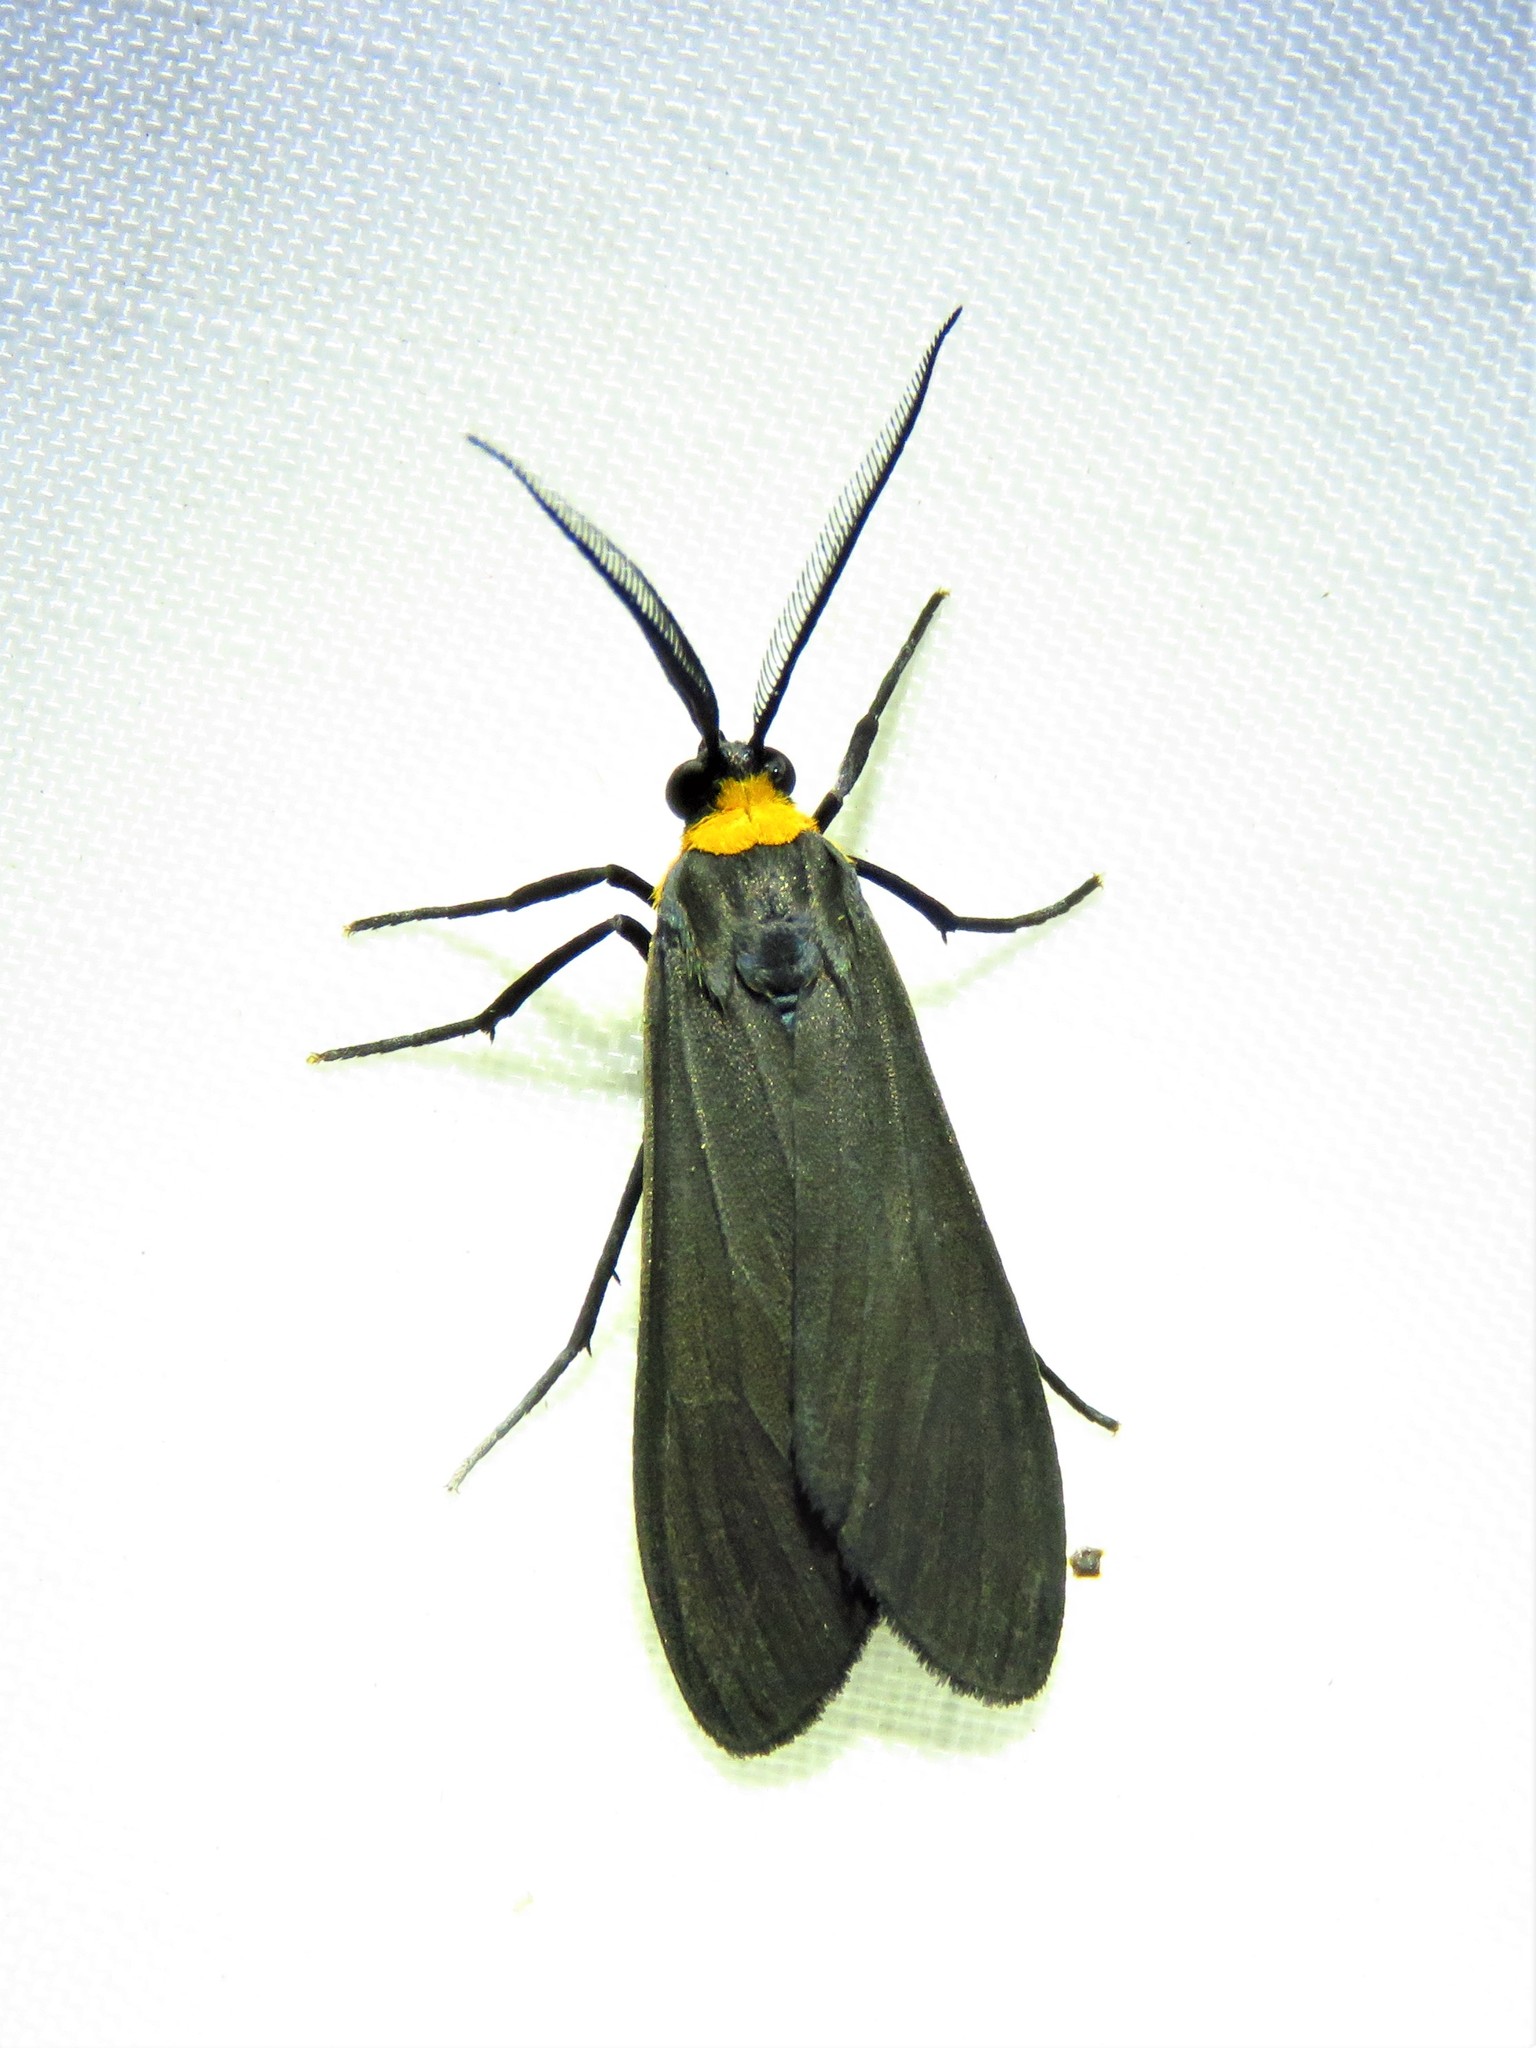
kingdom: Animalia
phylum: Arthropoda
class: Insecta
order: Lepidoptera
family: Erebidae
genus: Cisseps
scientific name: Cisseps fulvicollis
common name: Yellow-collared scape moth
